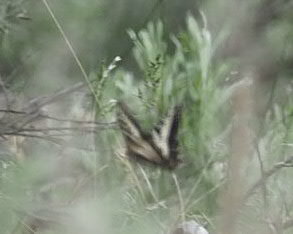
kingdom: Animalia
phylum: Arthropoda
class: Insecta
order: Lepidoptera
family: Papilionidae
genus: Papilio
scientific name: Papilio eurymedon
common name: Pale tiger swallowtail
